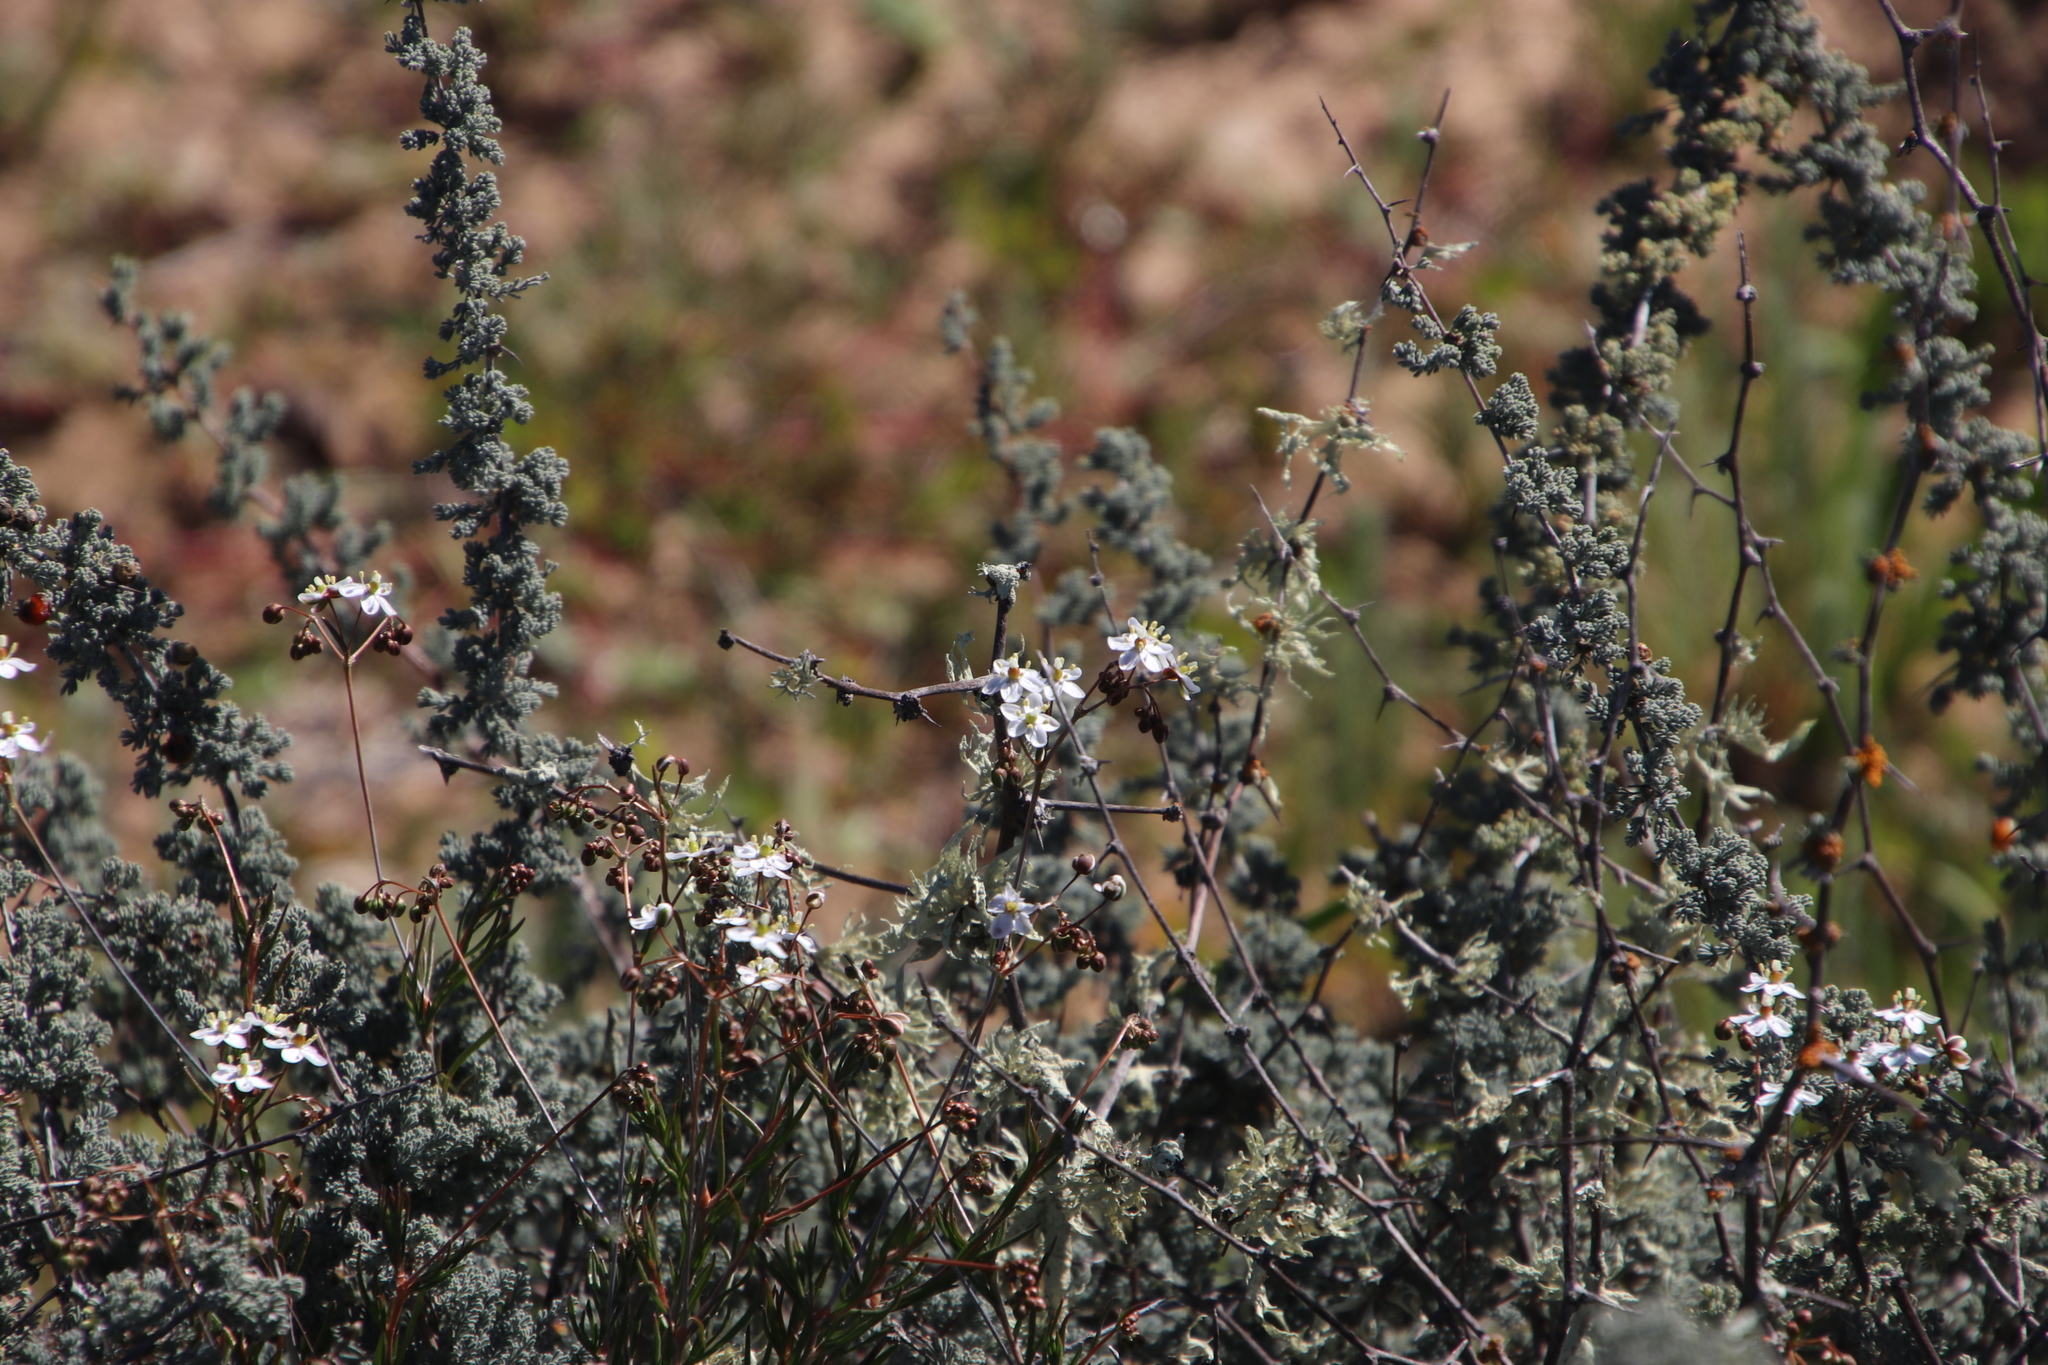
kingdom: Plantae
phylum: Tracheophyta
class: Magnoliopsida
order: Caryophyllales
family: Molluginaceae
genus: Pharnaceum
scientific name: Pharnaceum aurantium
